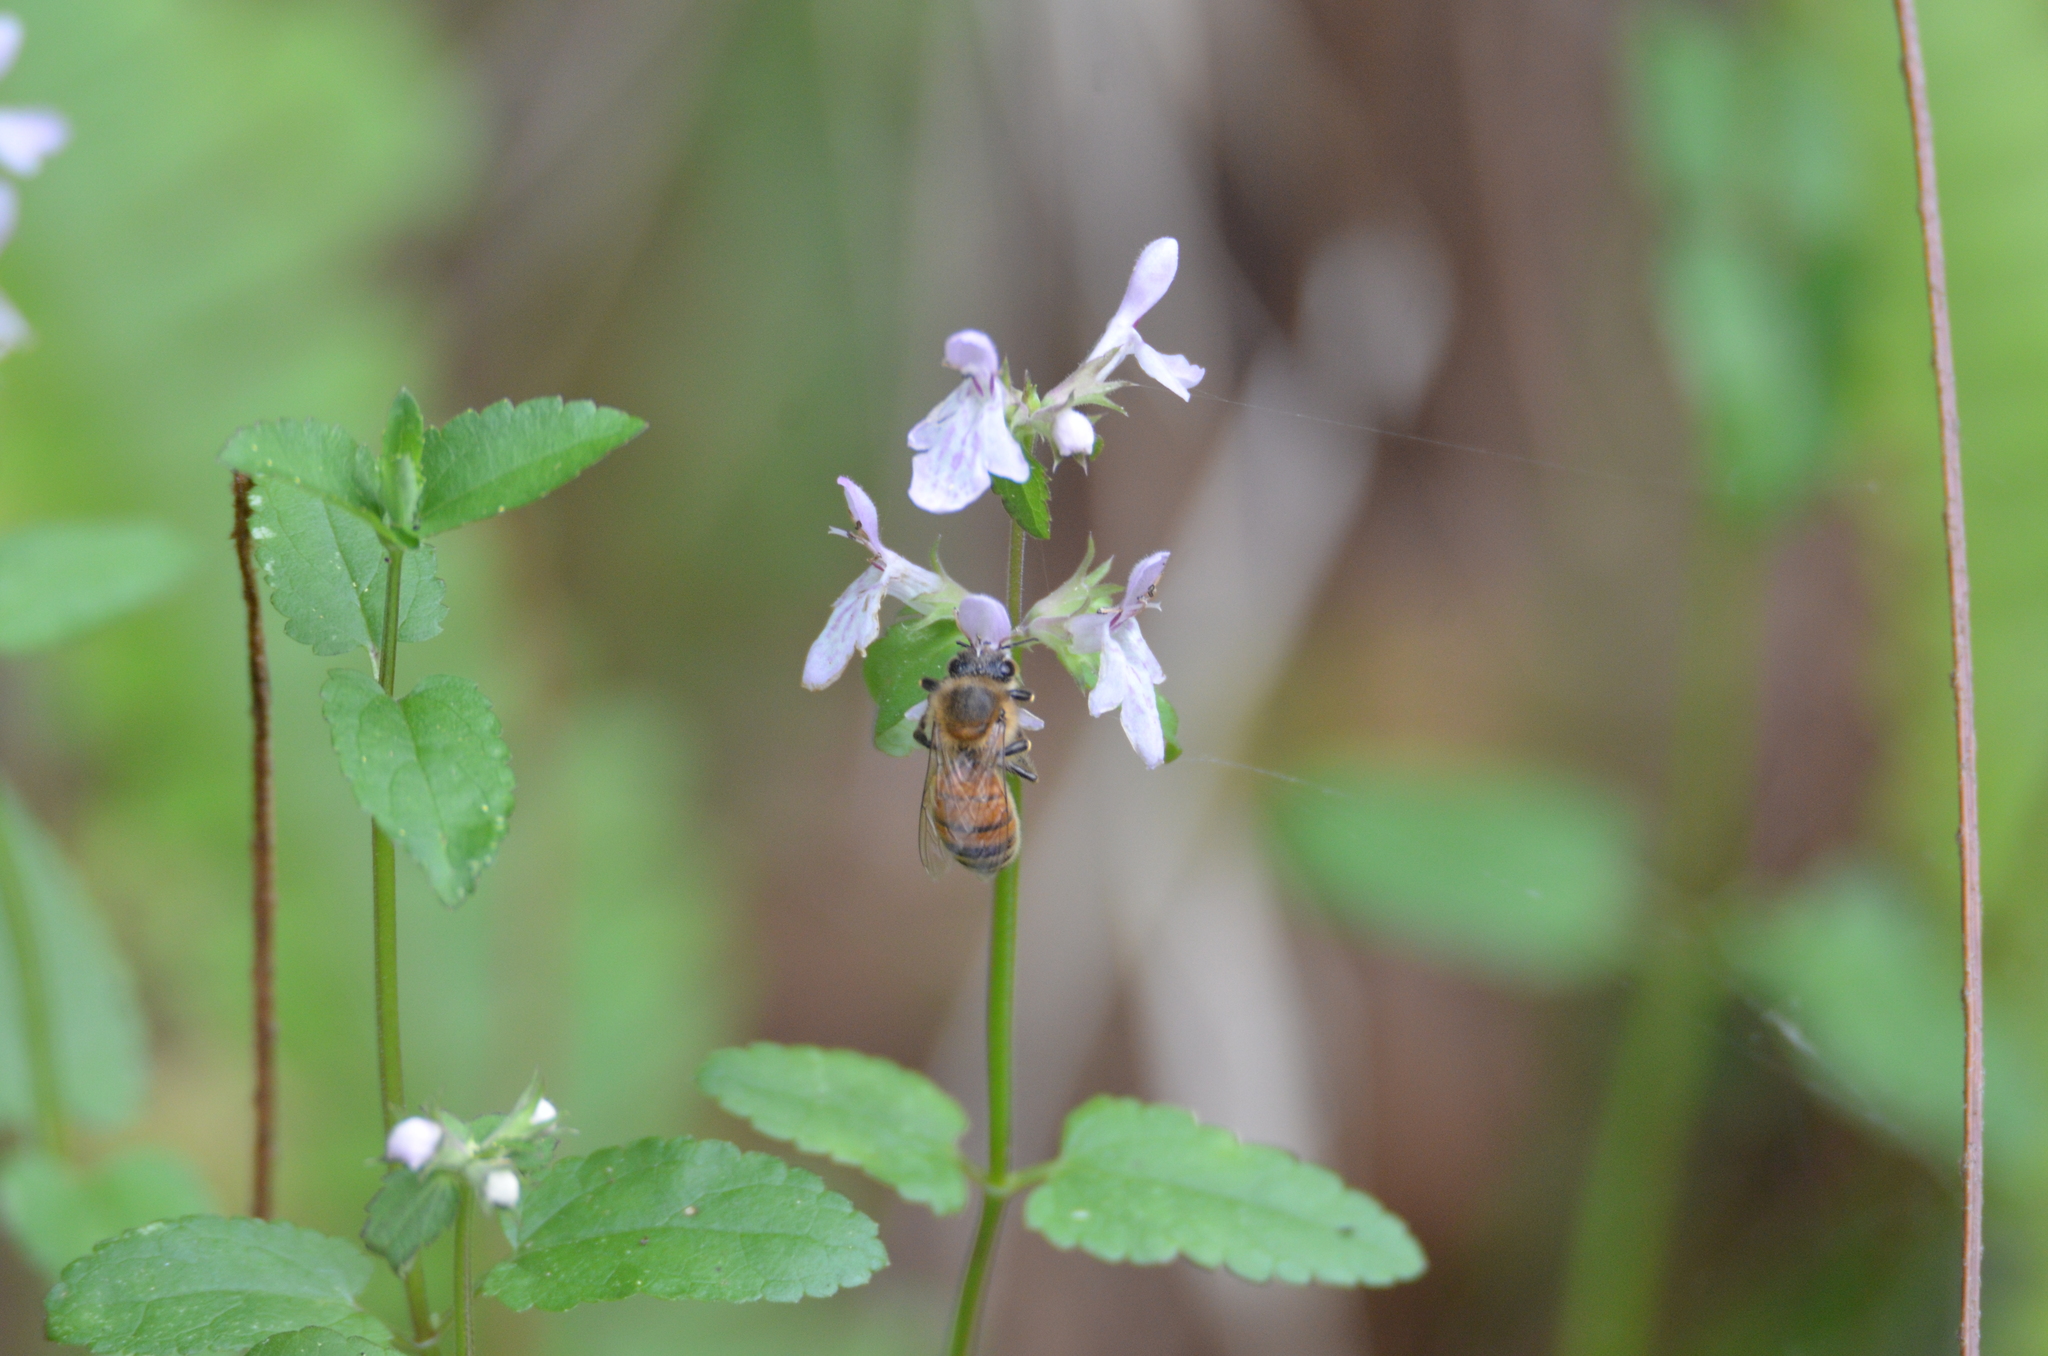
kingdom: Animalia
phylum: Arthropoda
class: Insecta
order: Hymenoptera
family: Apidae
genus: Apis
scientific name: Apis mellifera
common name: Honey bee
